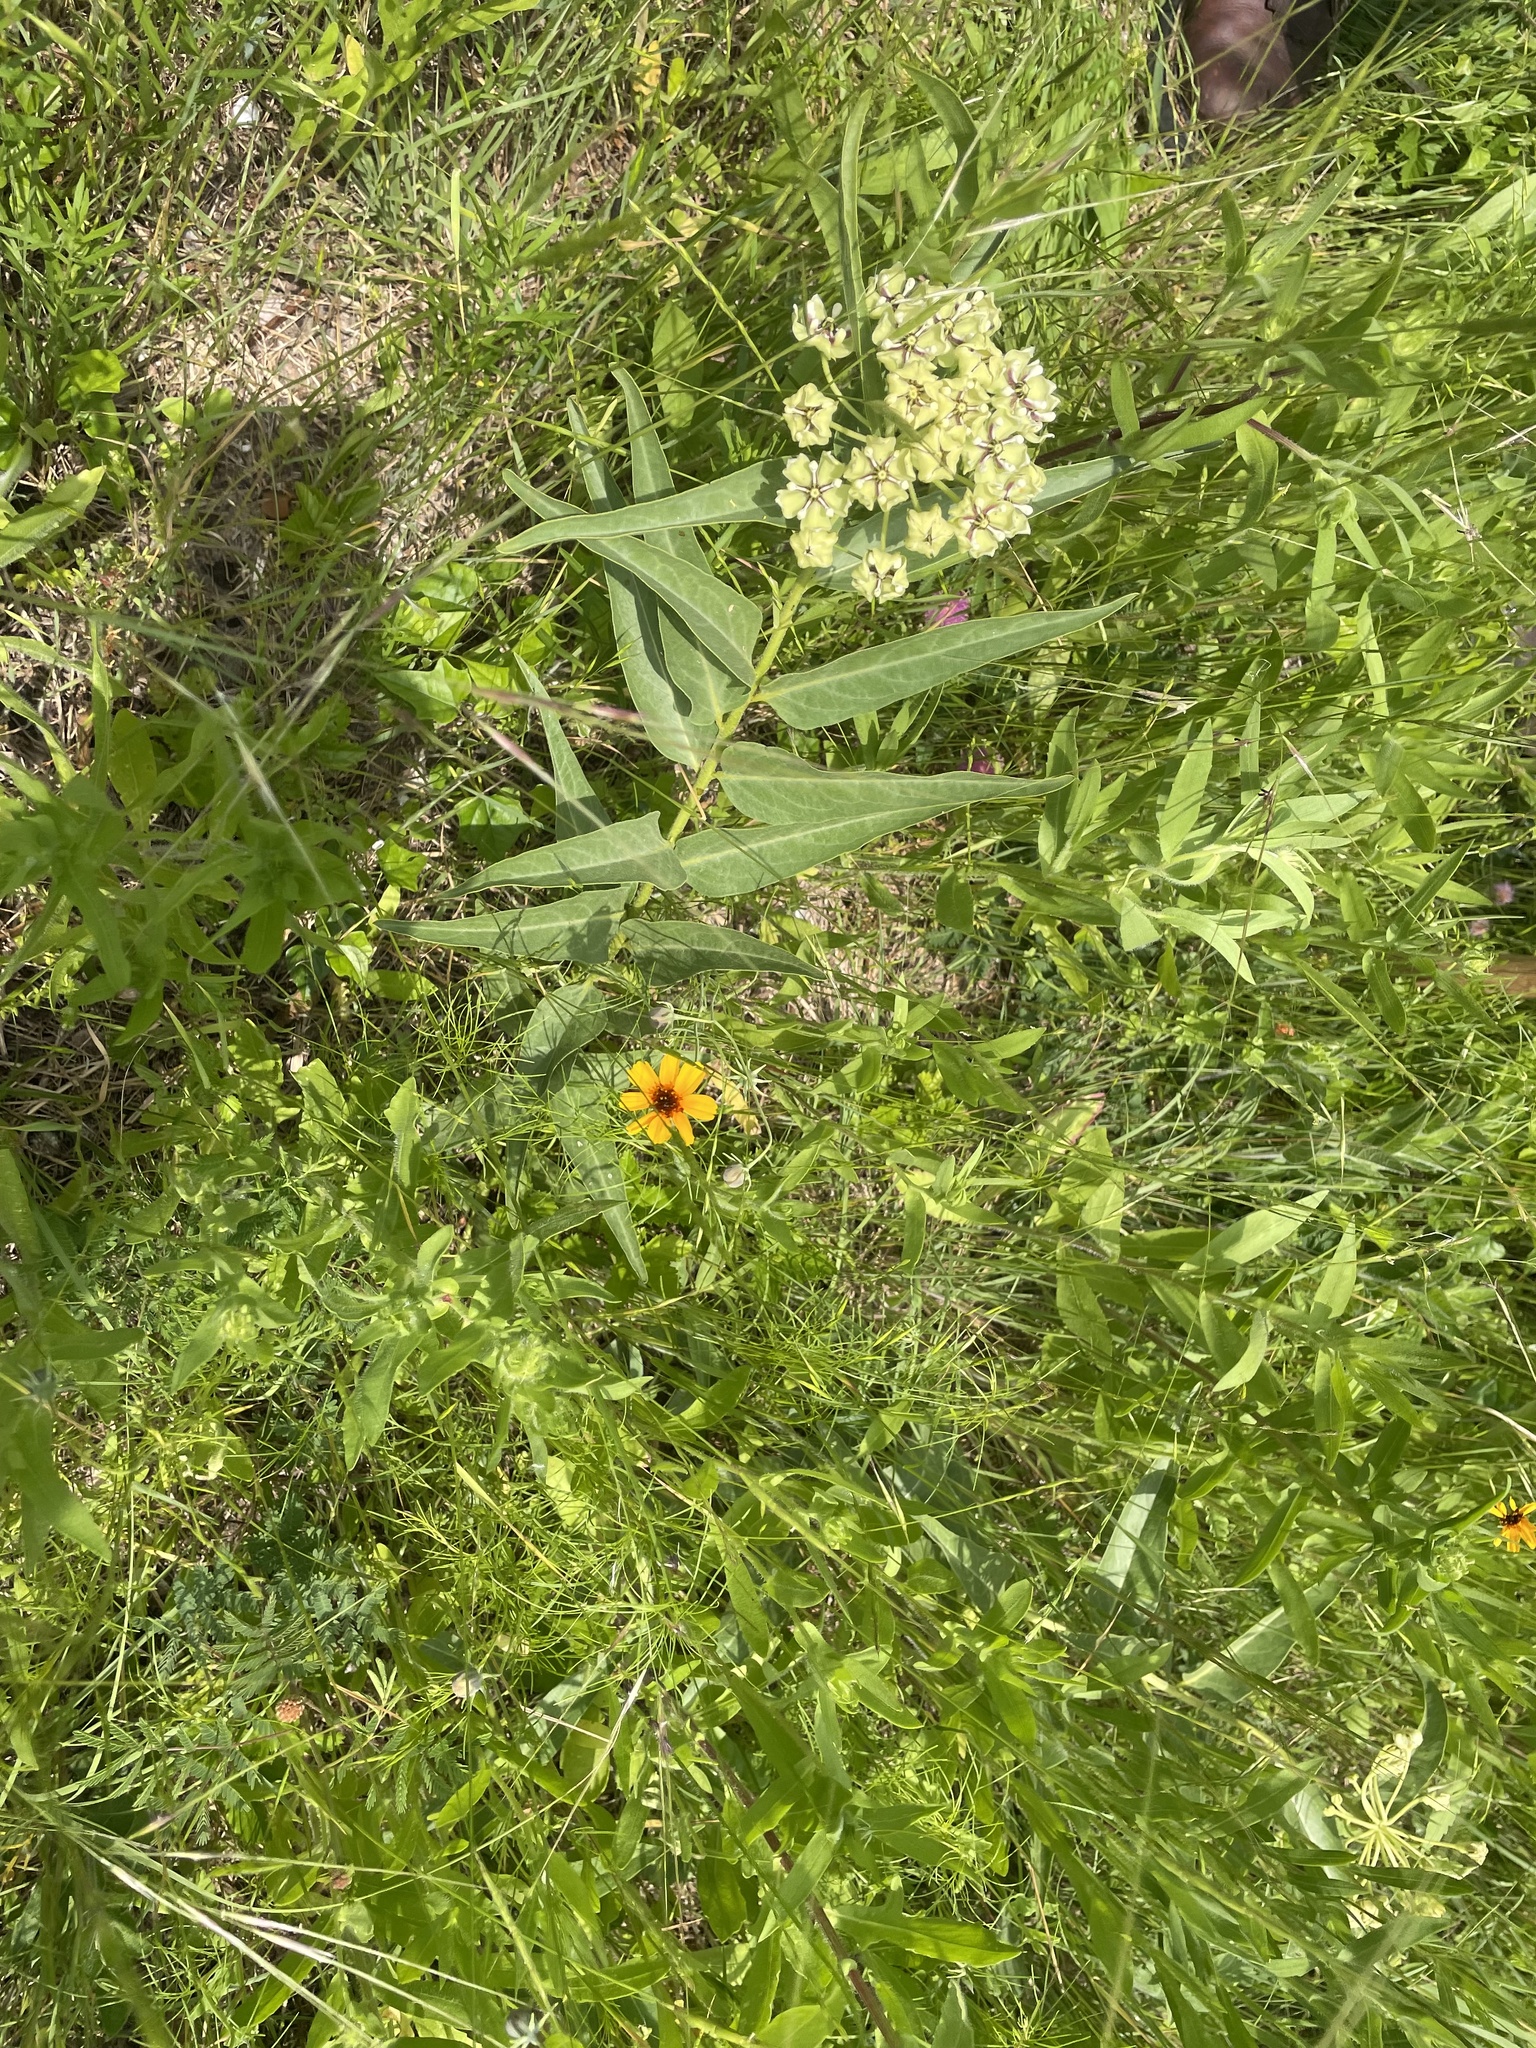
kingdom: Plantae
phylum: Tracheophyta
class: Magnoliopsida
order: Gentianales
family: Apocynaceae
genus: Asclepias
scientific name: Asclepias asperula
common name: Antelope horns
